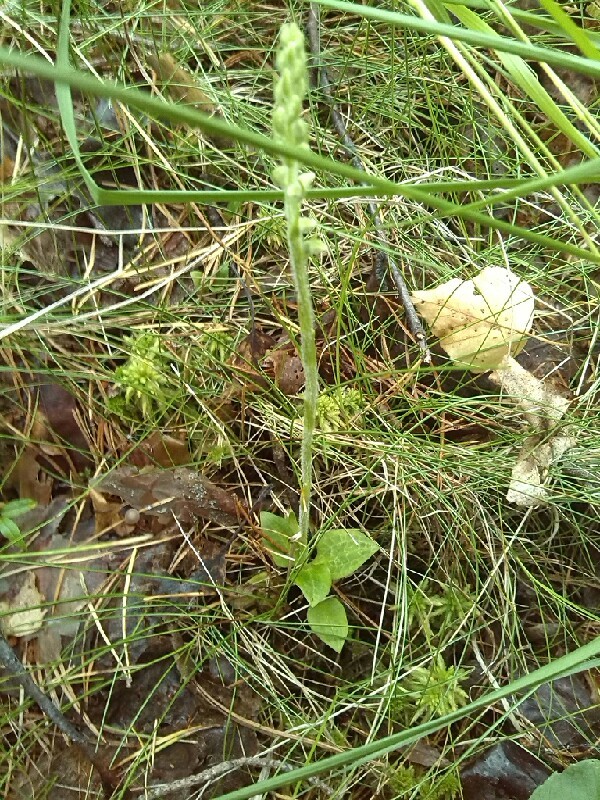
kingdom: Plantae
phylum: Tracheophyta
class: Liliopsida
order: Asparagales
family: Orchidaceae
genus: Goodyera
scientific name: Goodyera repens
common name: Creeping lady's-tresses
